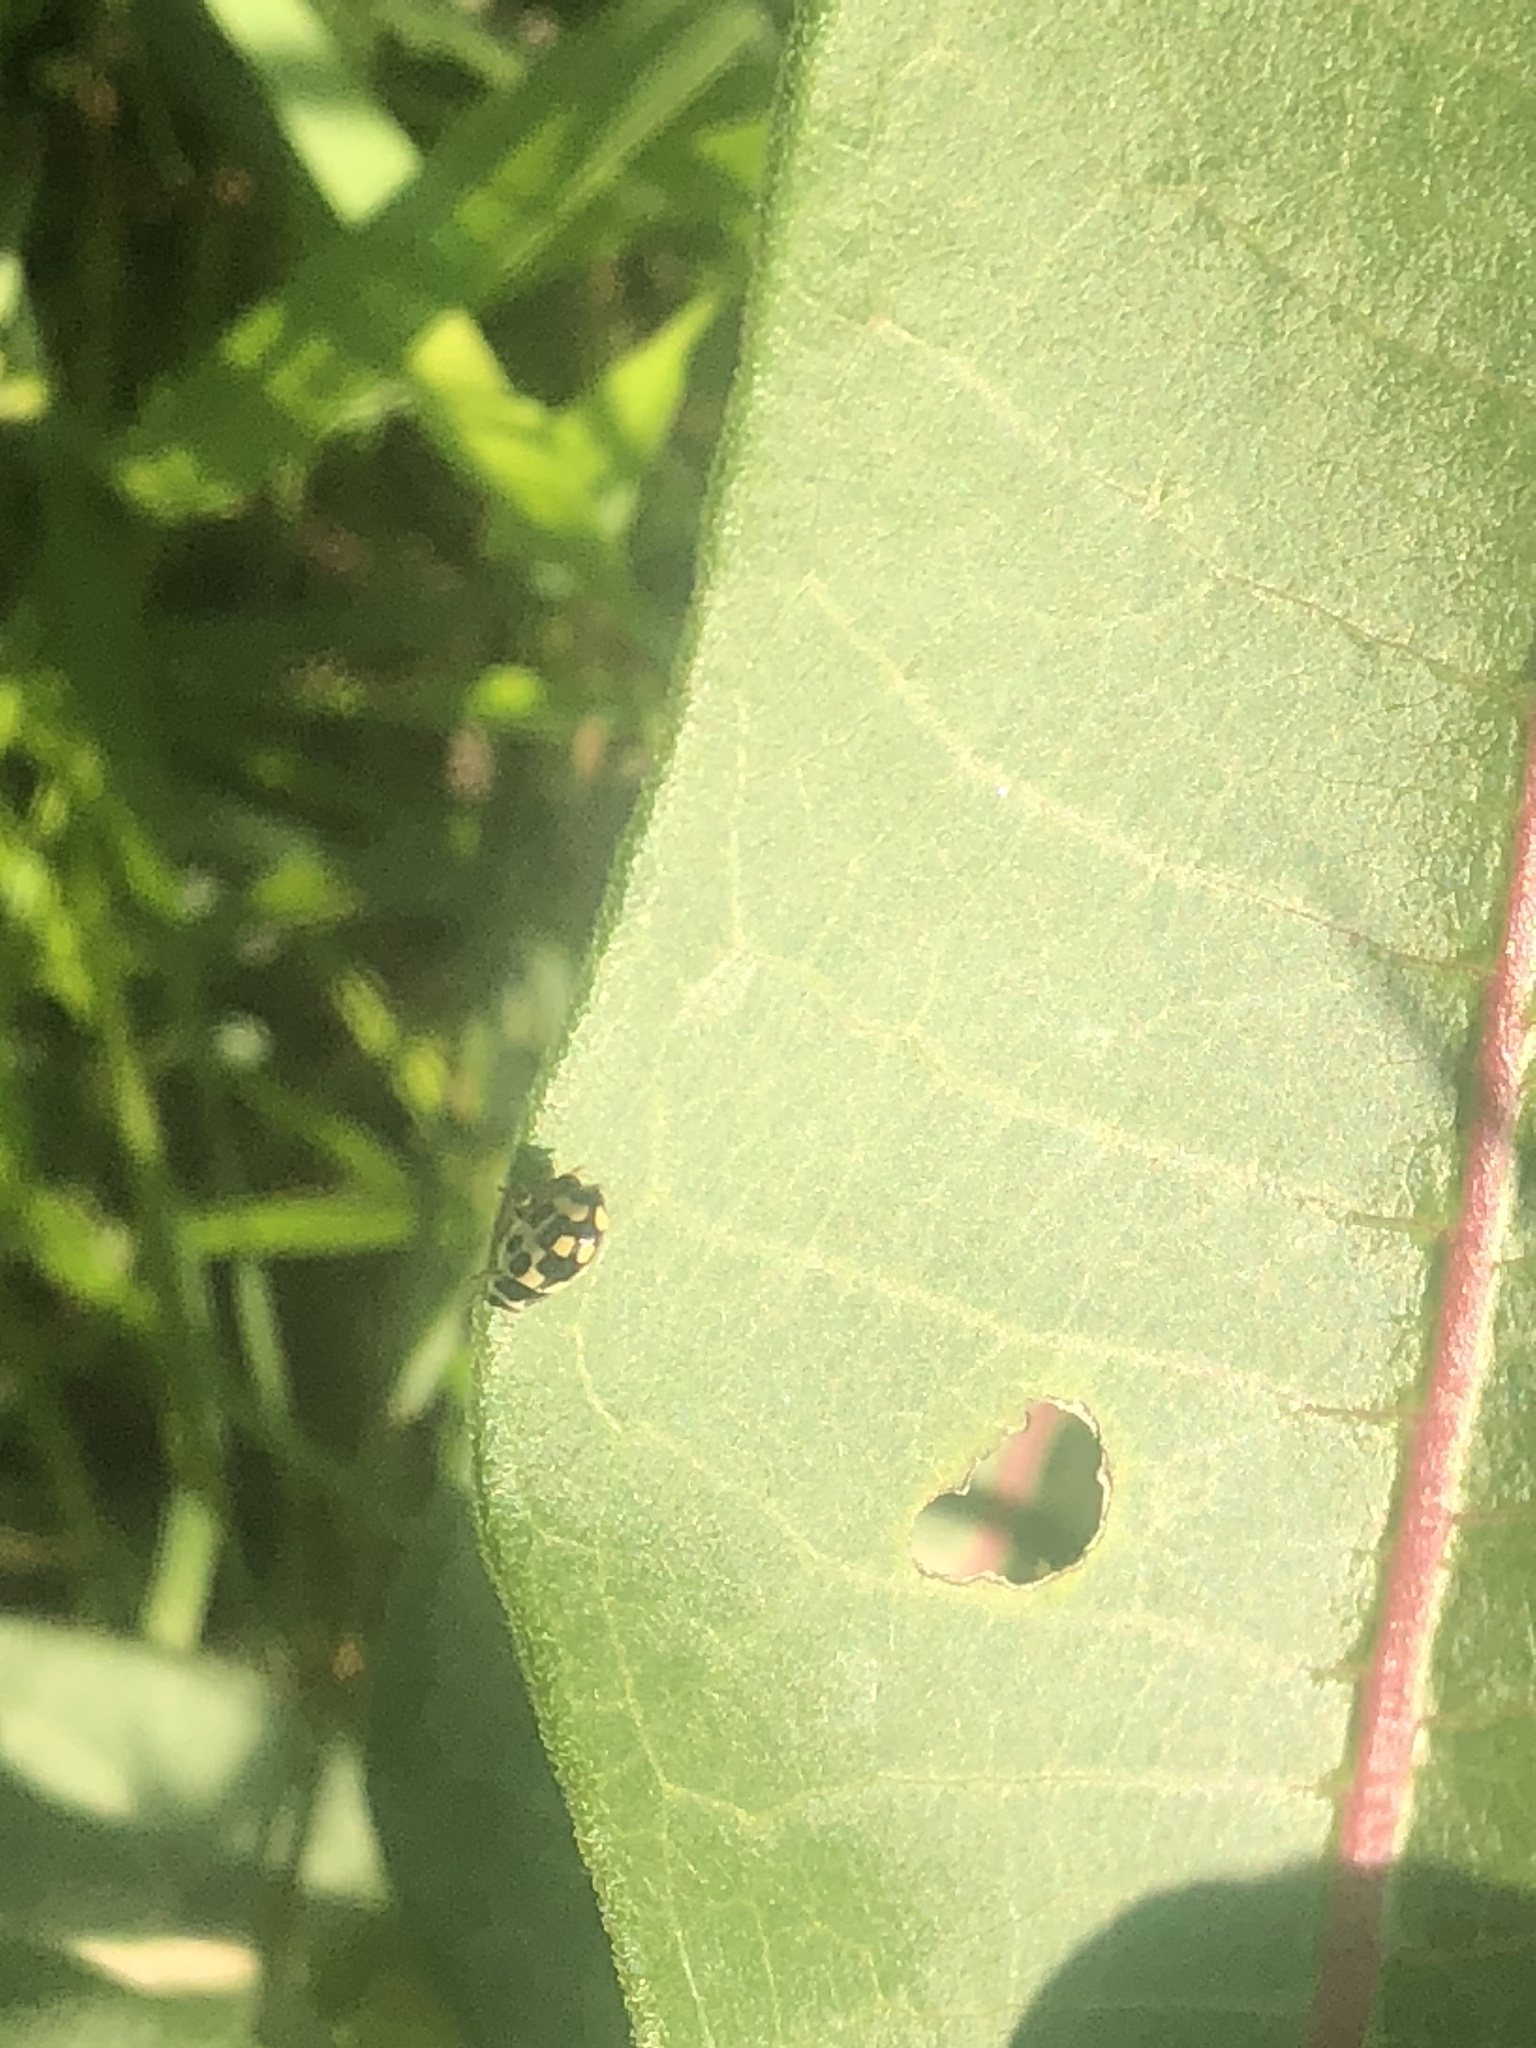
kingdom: Animalia
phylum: Arthropoda
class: Insecta
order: Coleoptera
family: Coccinellidae
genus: Propylaea
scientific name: Propylaea quatuordecimpunctata
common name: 14-spotted ladybird beetle
